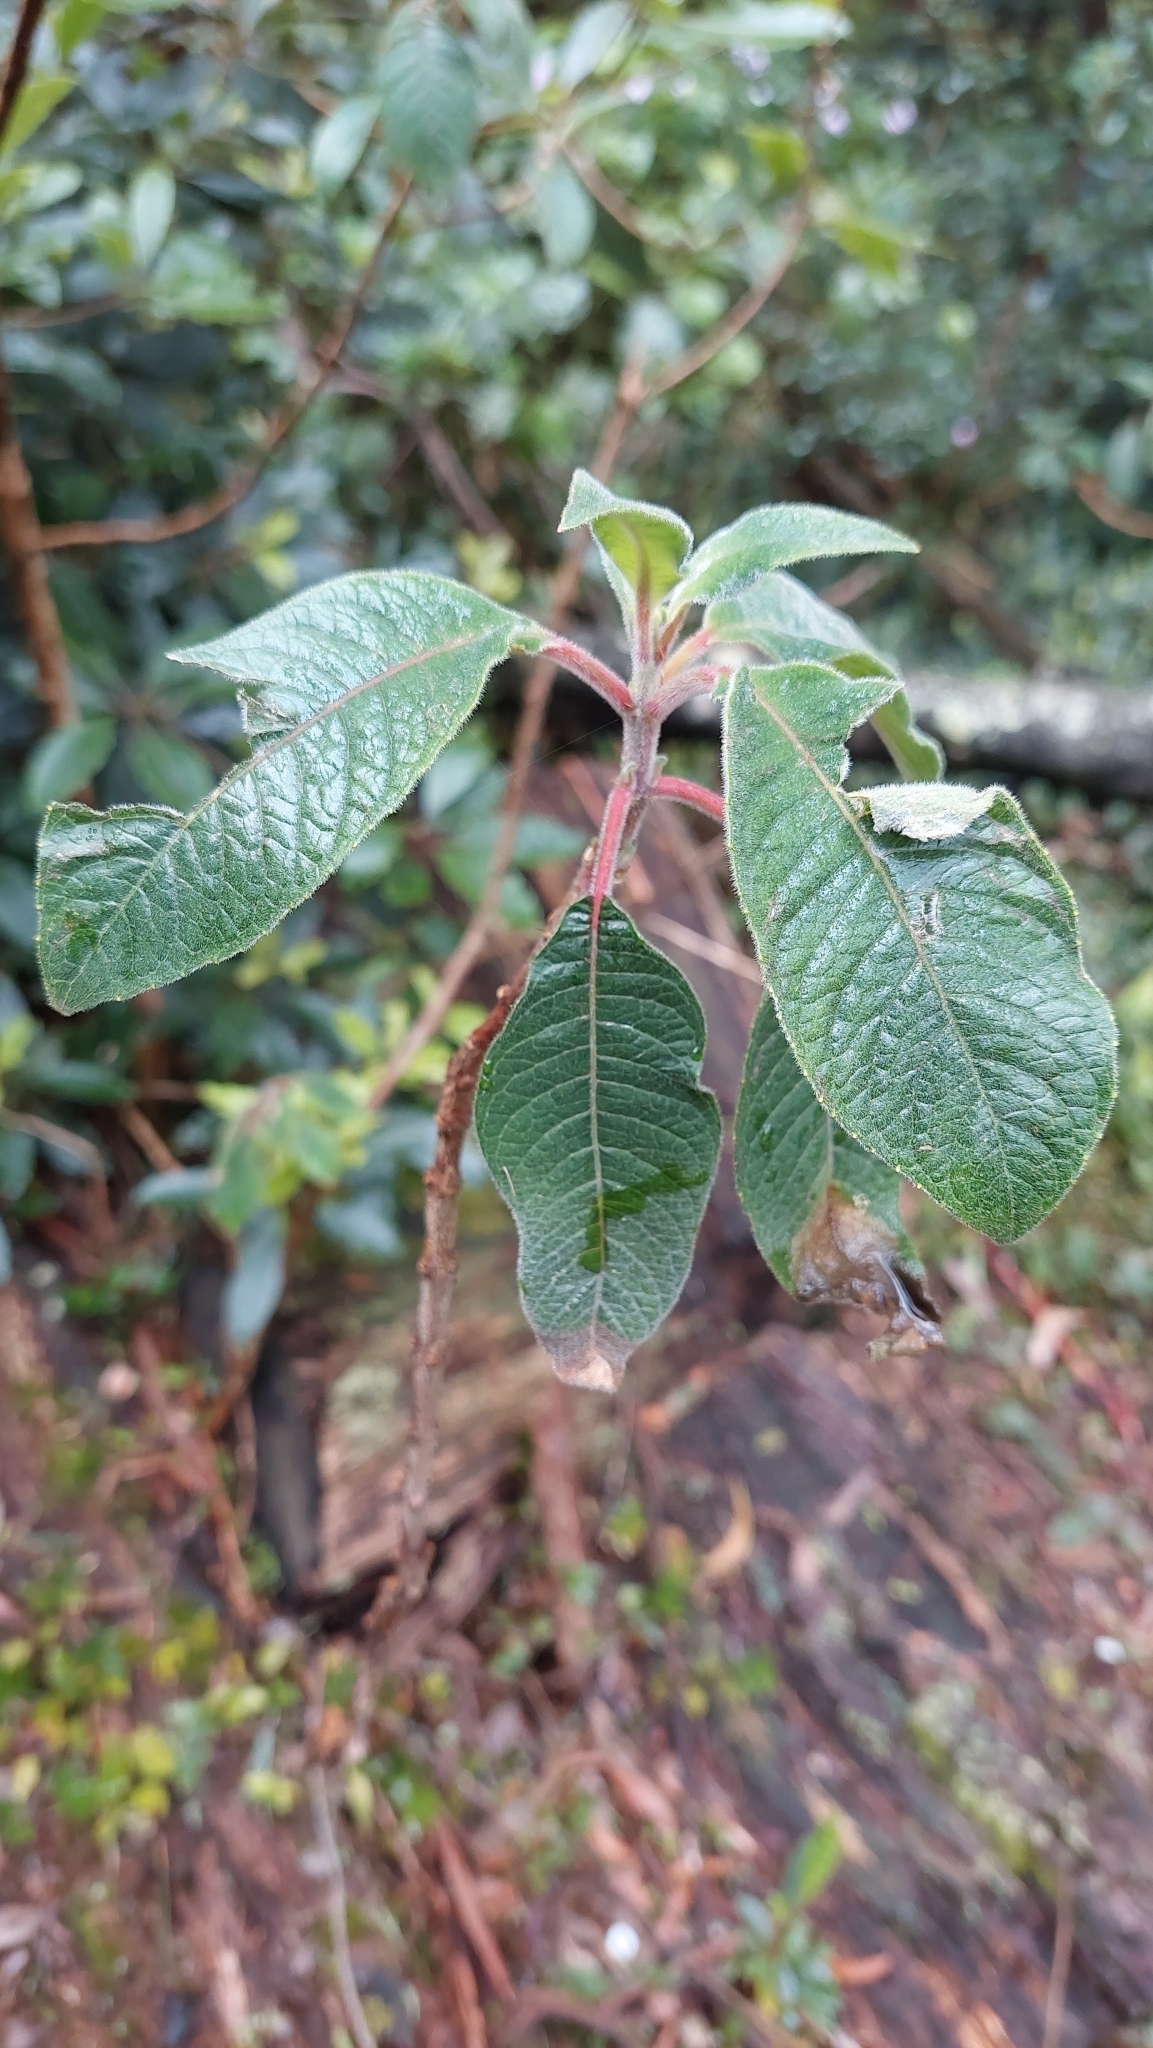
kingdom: Plantae
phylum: Tracheophyta
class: Magnoliopsida
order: Myrtales
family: Onagraceae
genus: Fuchsia
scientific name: Fuchsia boliviana
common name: Bolivian fuchsia
